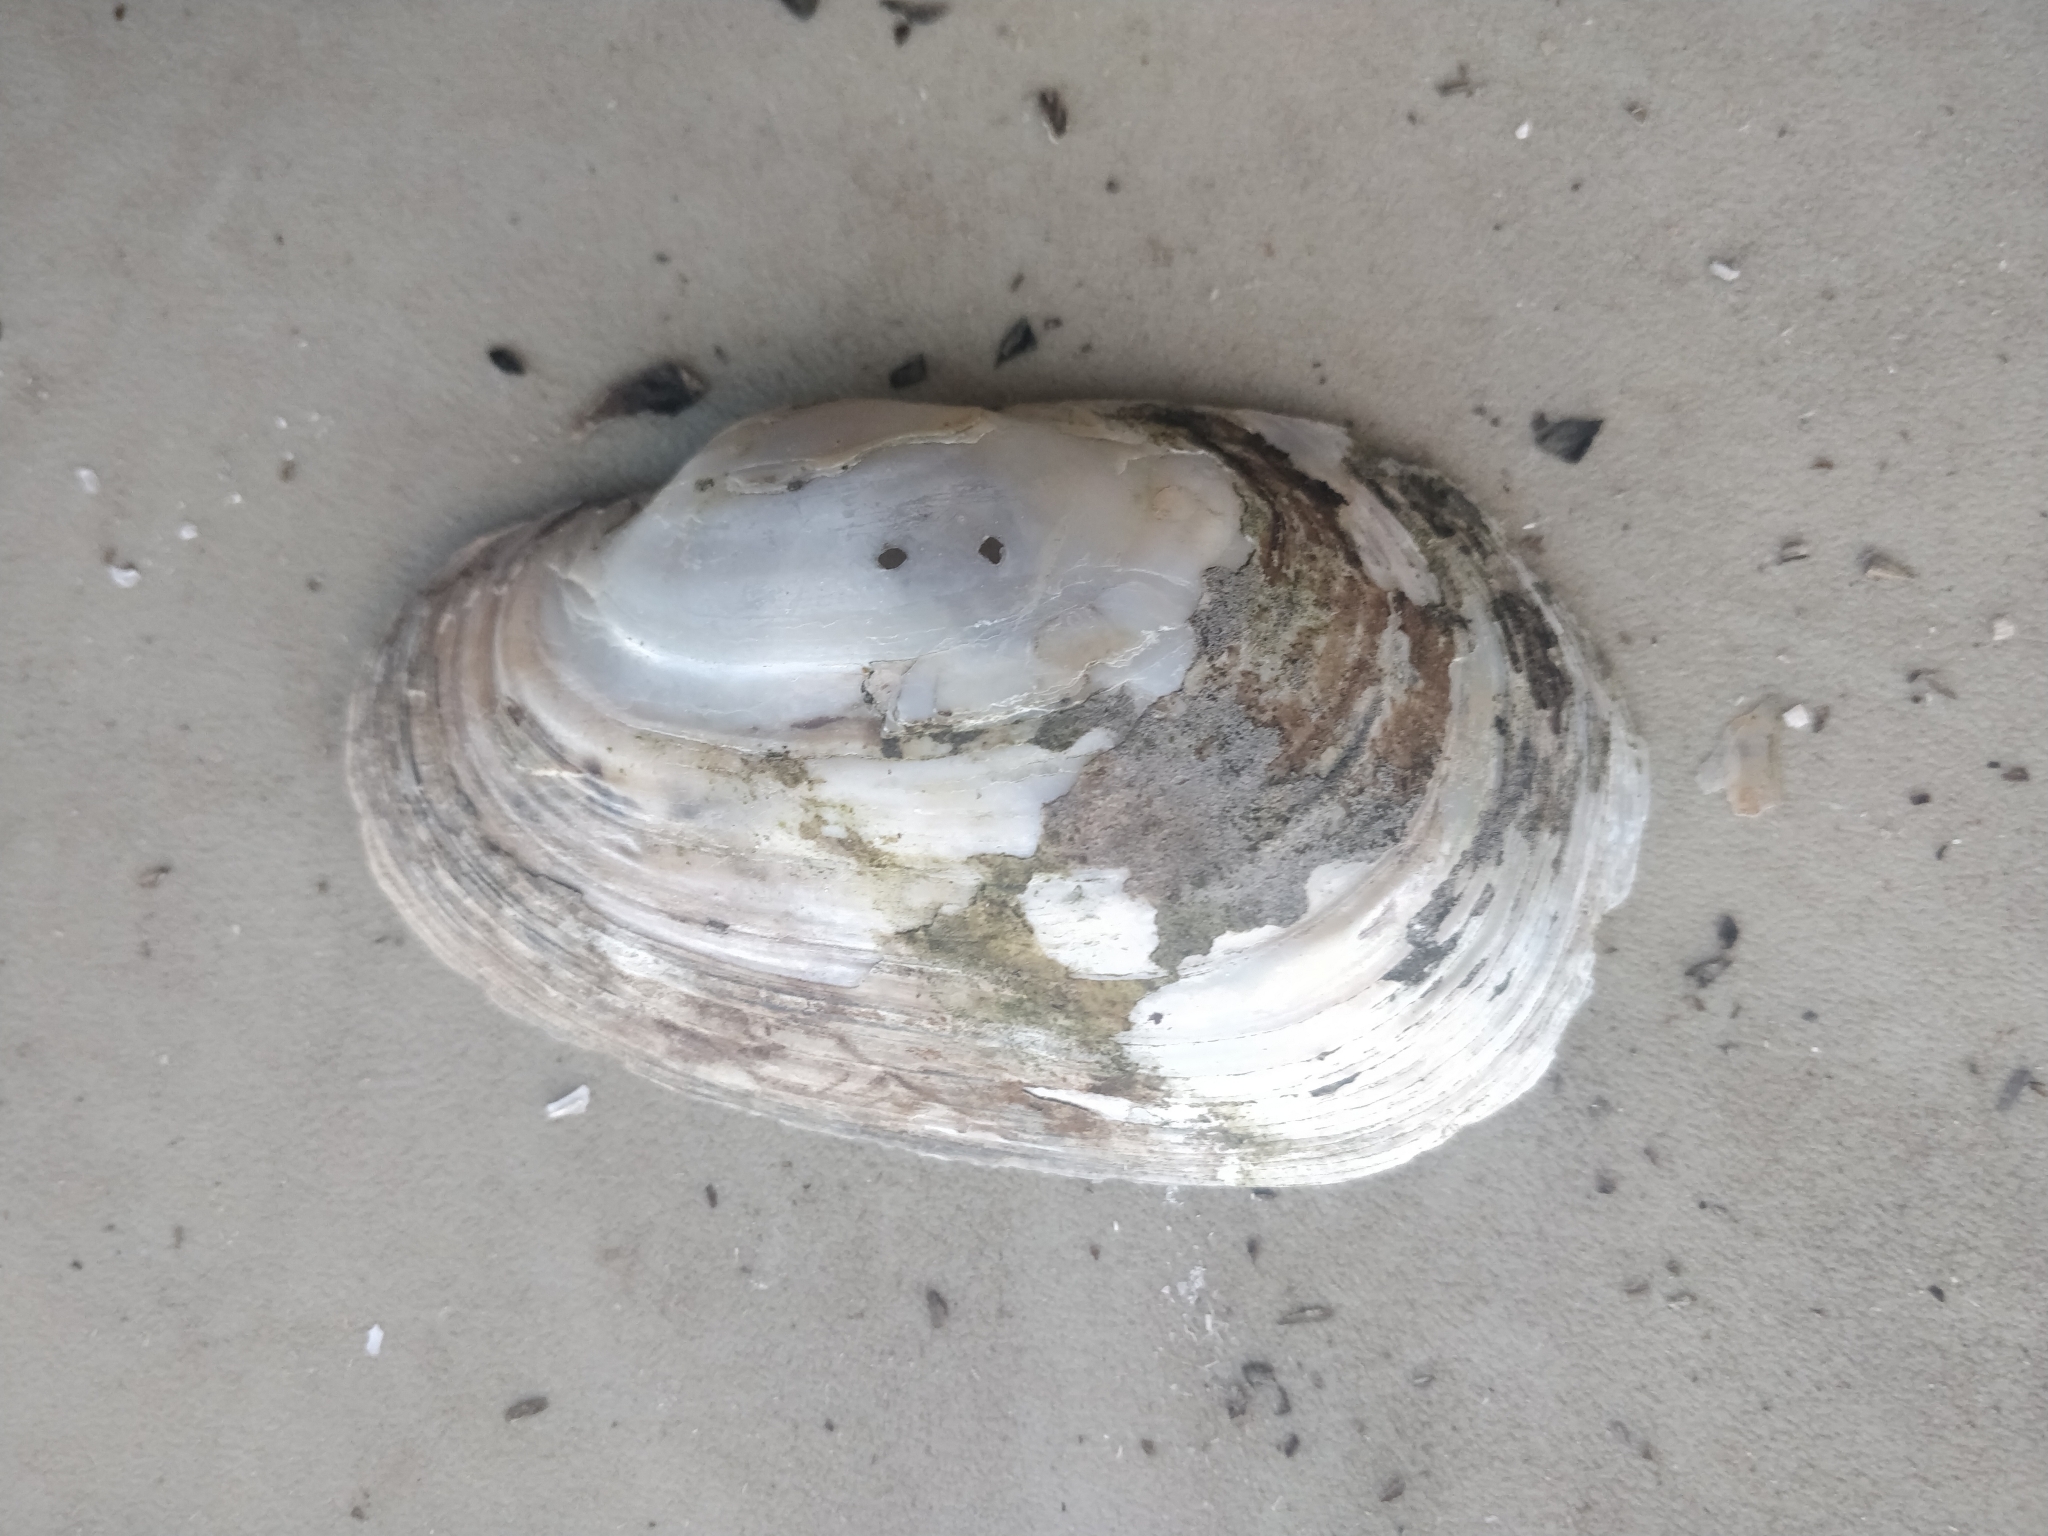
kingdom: Animalia
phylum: Mollusca
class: Bivalvia
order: Unionida
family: Unionidae
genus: Lampsilis
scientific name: Lampsilis siliquoidea
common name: Fatmucket
